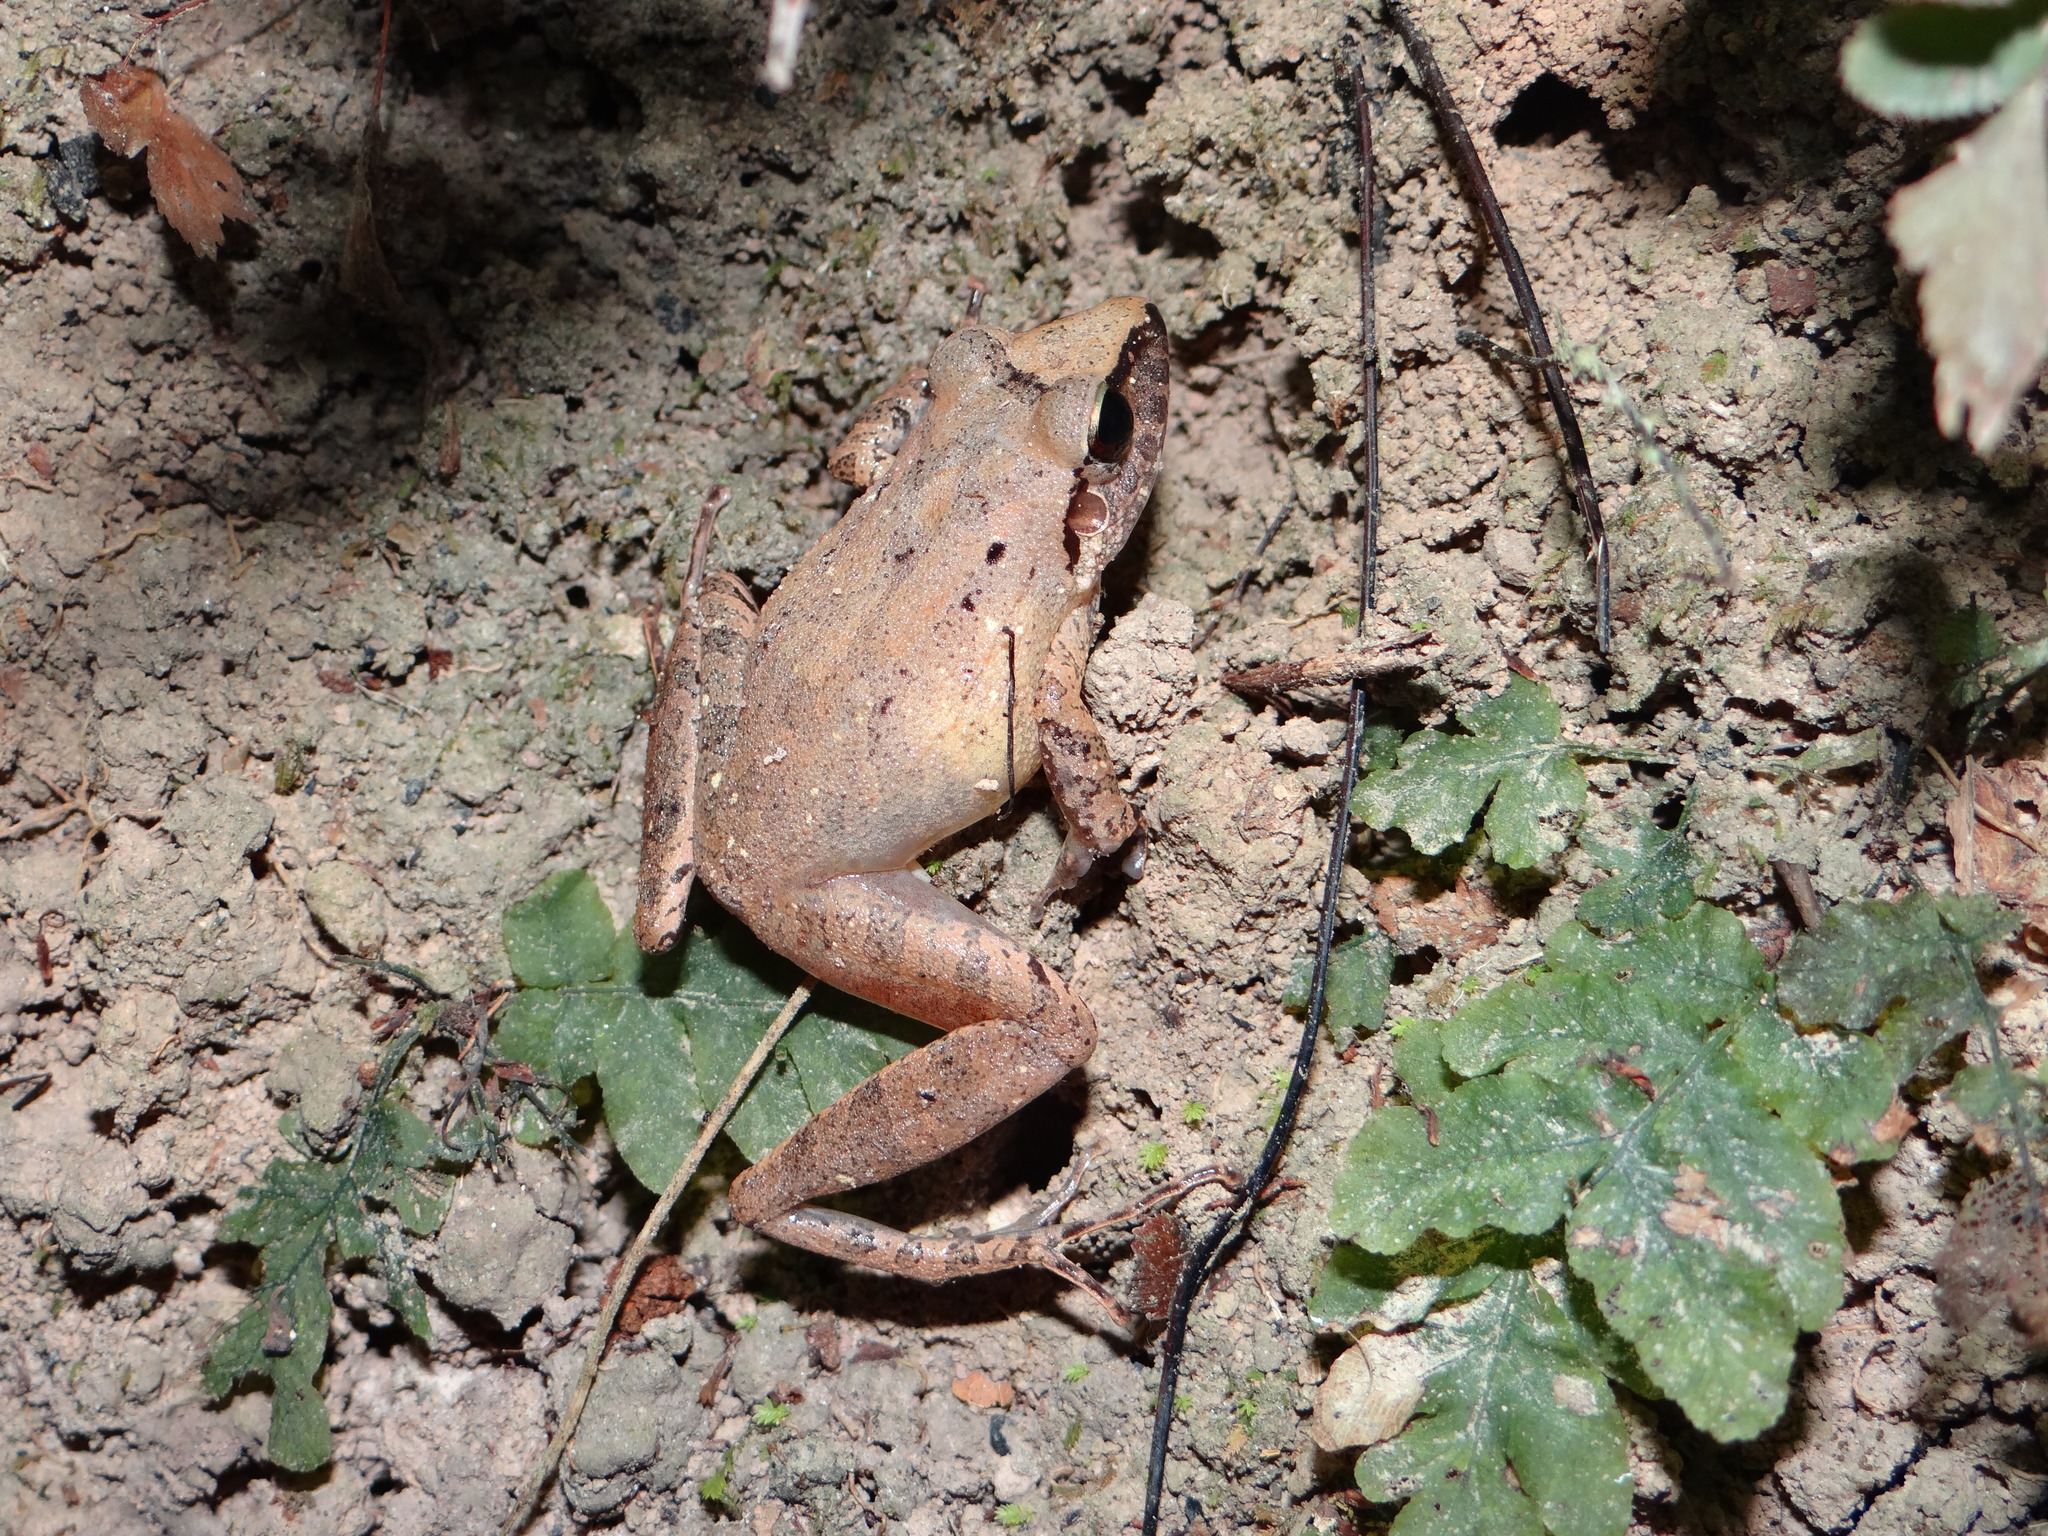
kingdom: Animalia
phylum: Chordata
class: Amphibia
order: Anura
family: Craugastoridae
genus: Pristimantis
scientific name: Pristimantis fenestratus
